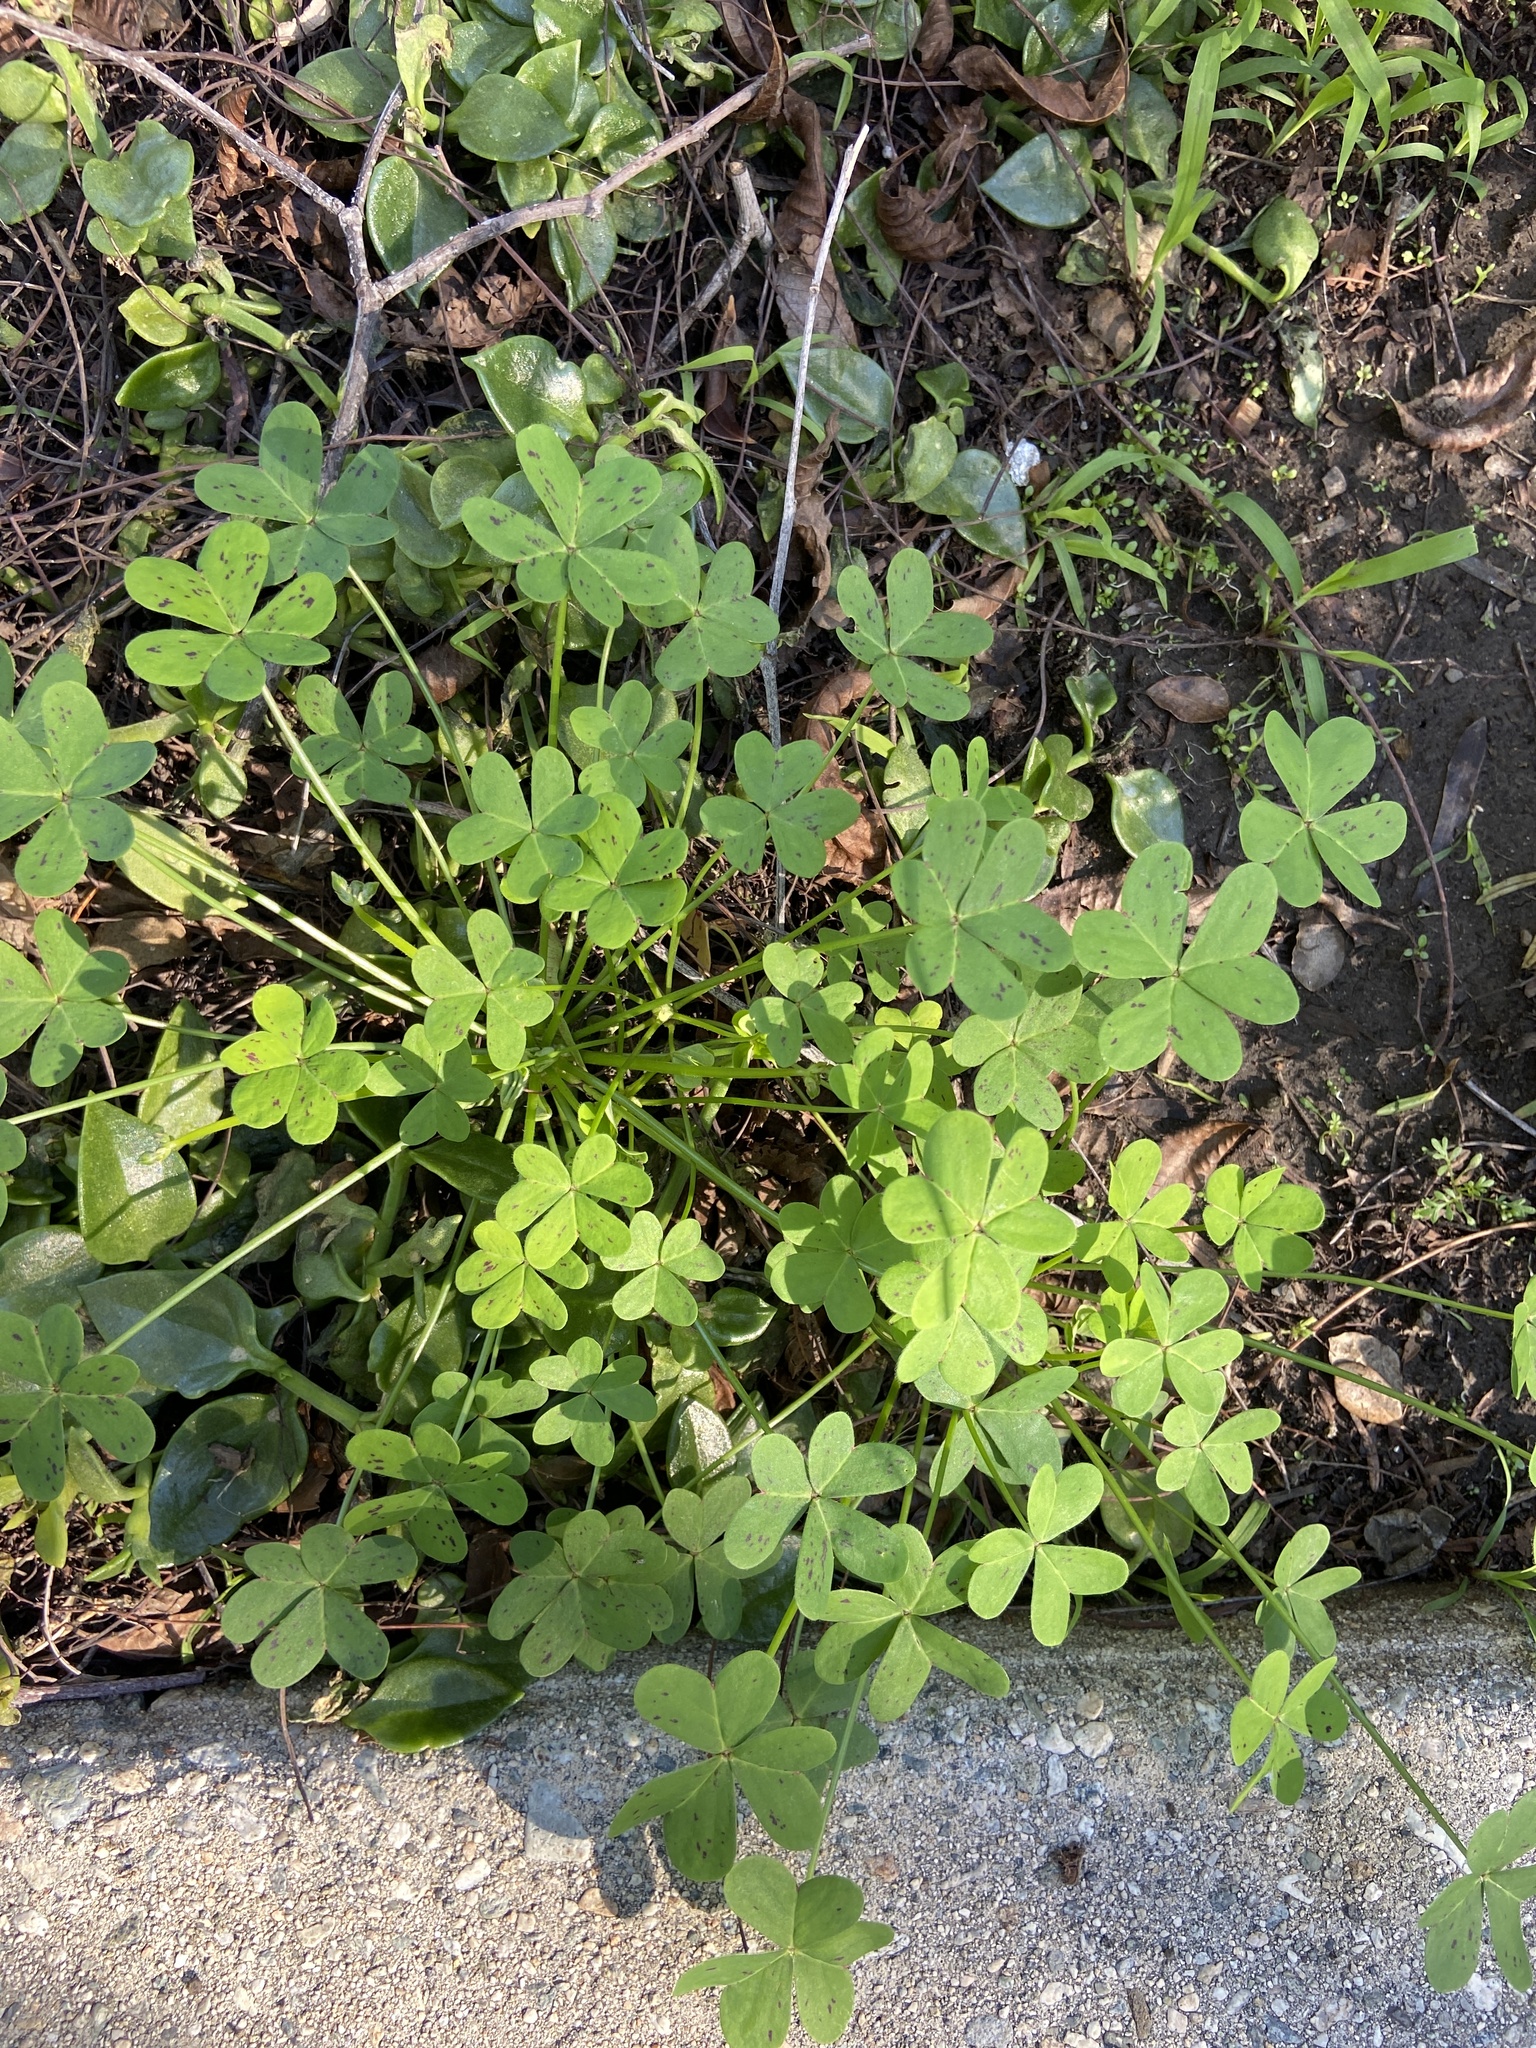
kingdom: Plantae
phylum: Tracheophyta
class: Magnoliopsida
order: Oxalidales
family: Oxalidaceae
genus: Oxalis
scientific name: Oxalis pes-caprae
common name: Bermuda-buttercup
